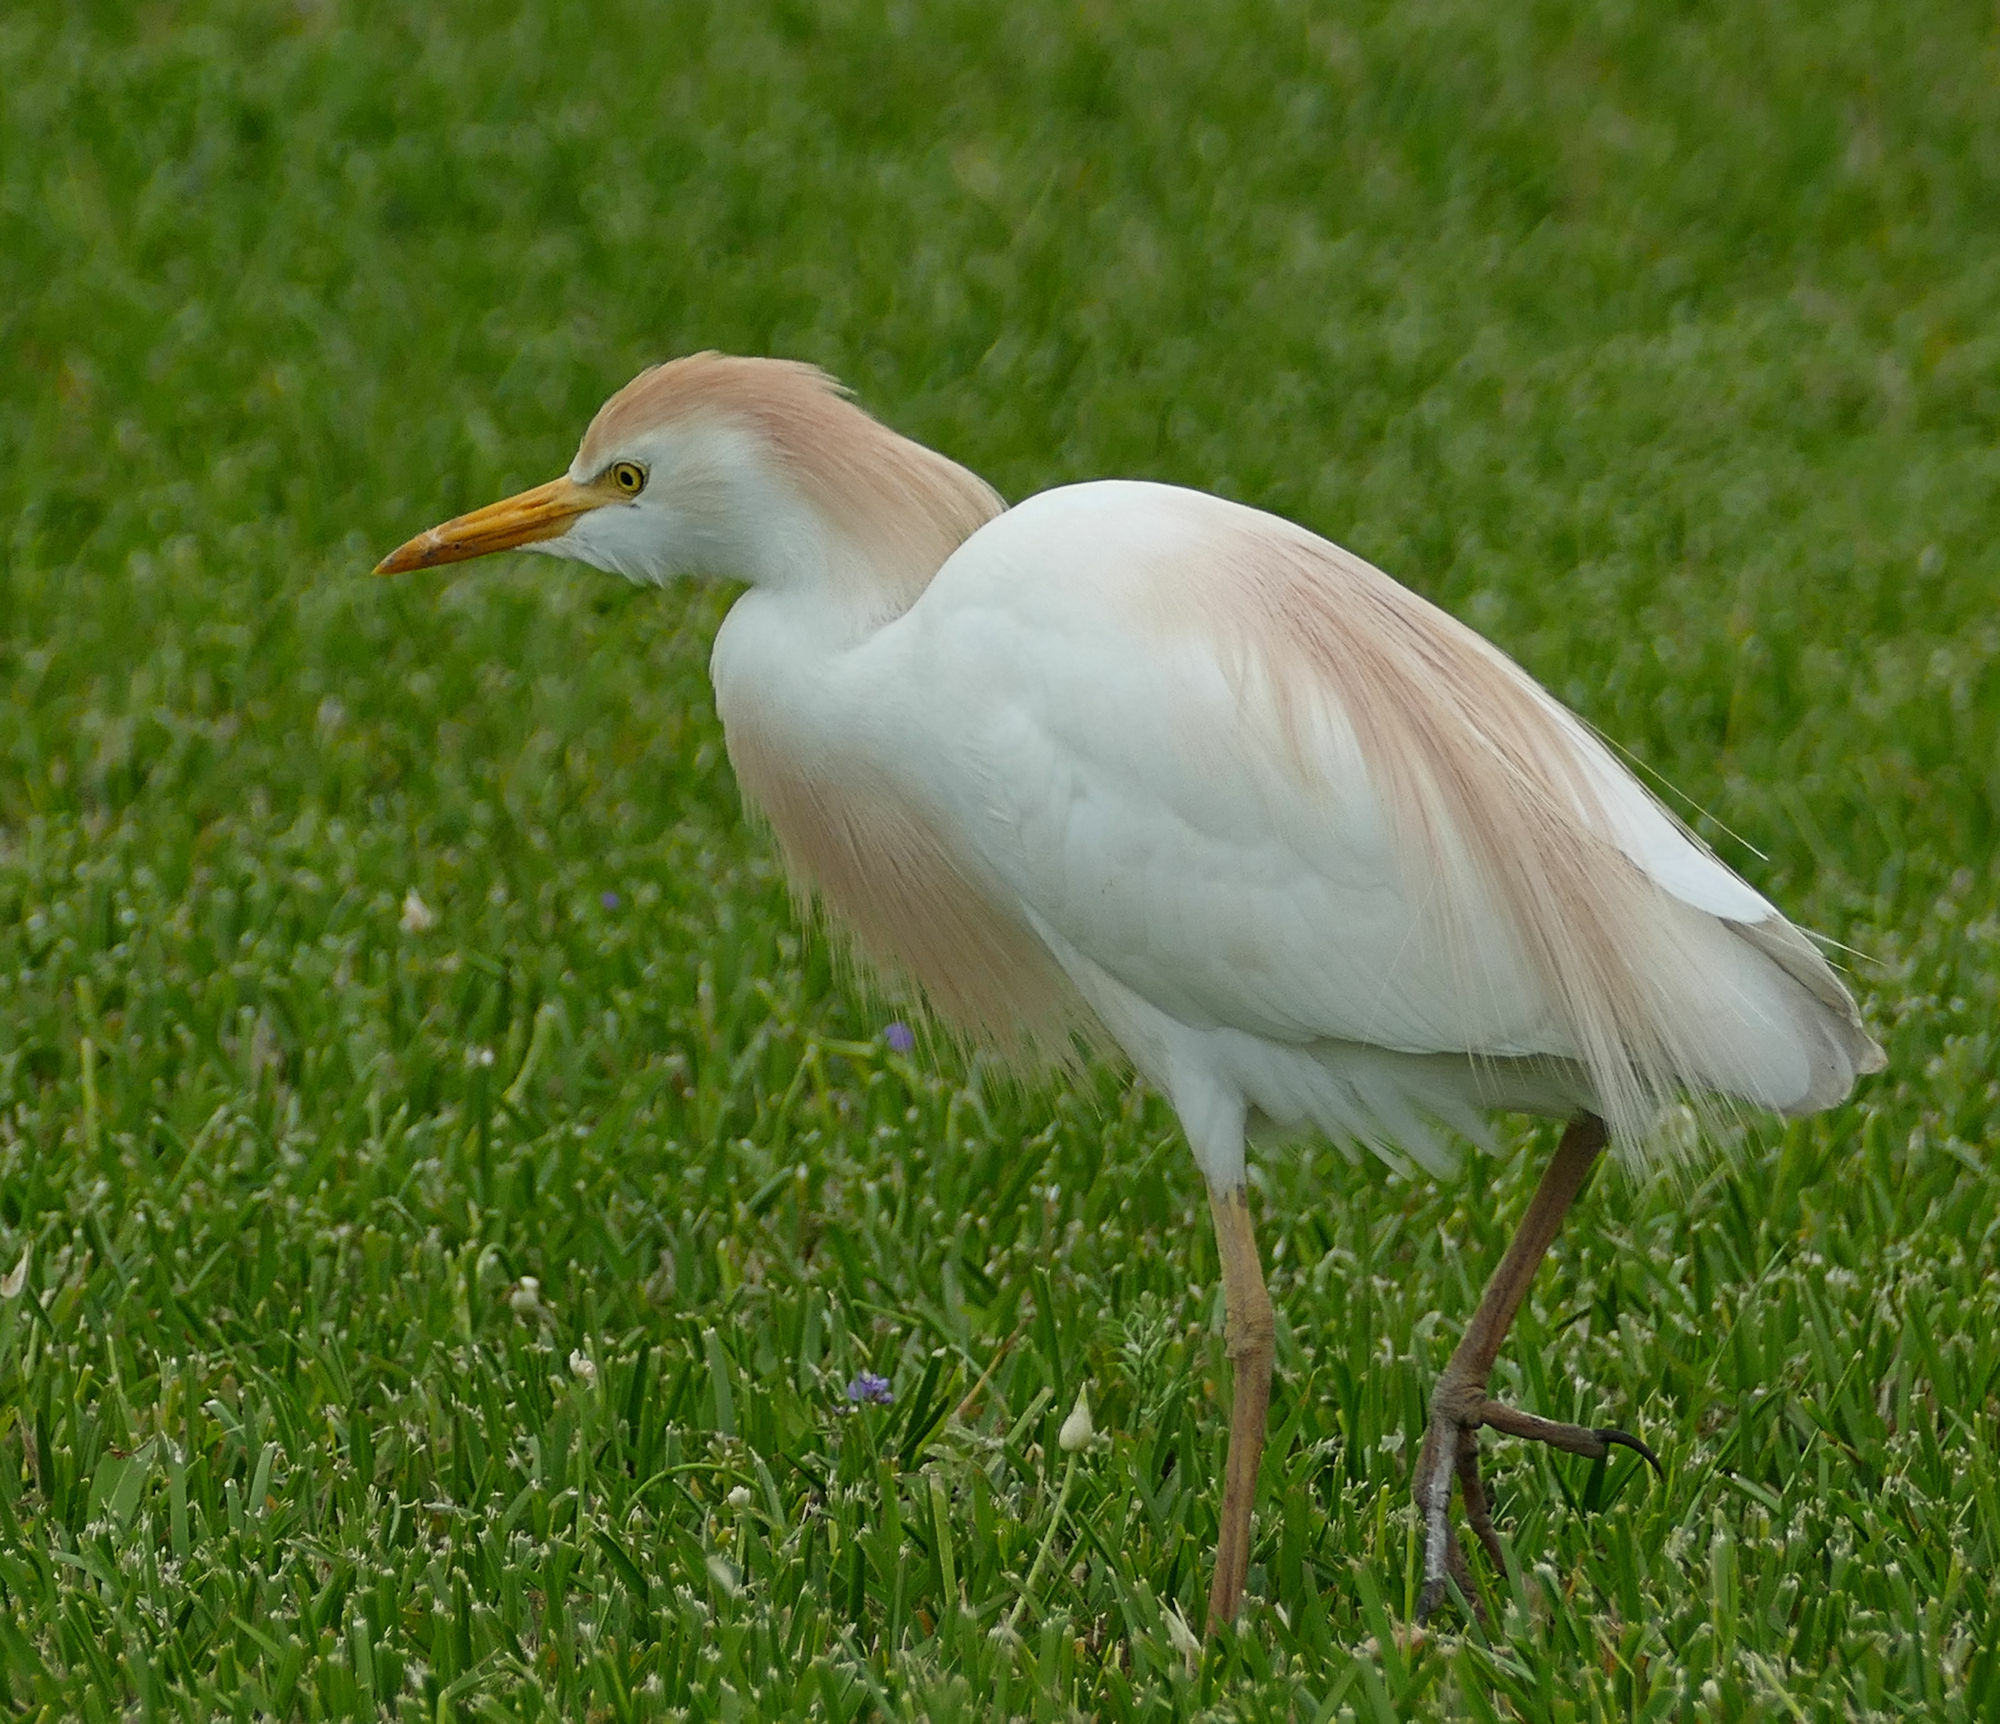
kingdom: Animalia
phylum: Chordata
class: Aves
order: Pelecaniformes
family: Ardeidae
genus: Bubulcus
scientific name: Bubulcus ibis
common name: Cattle egret
